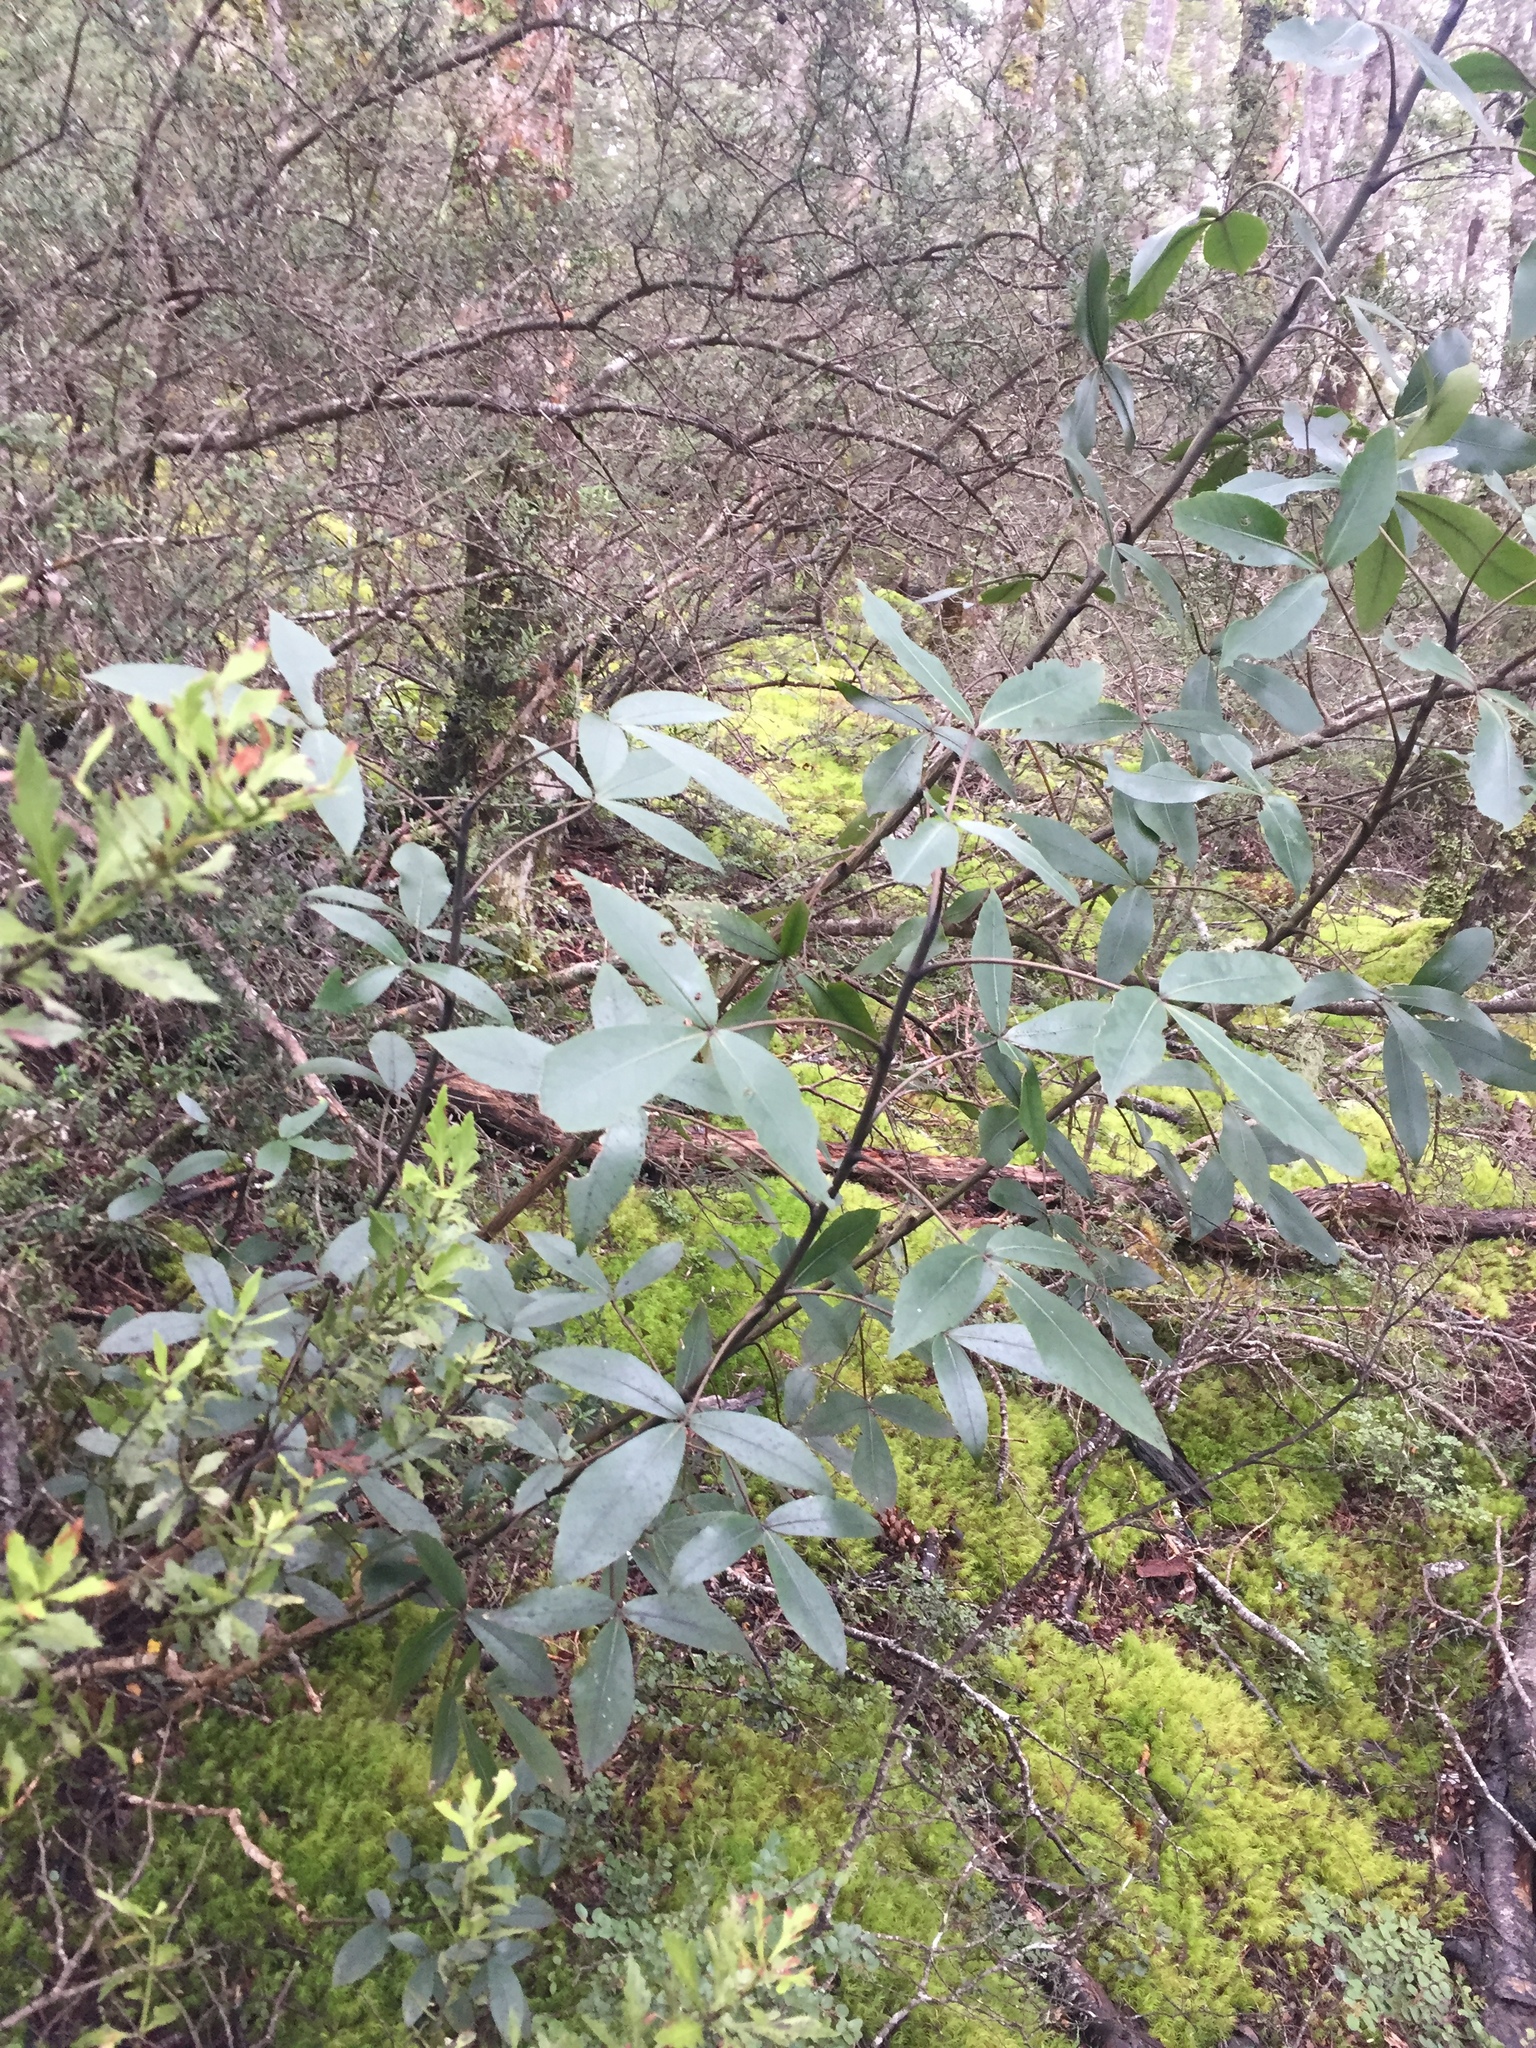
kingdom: Plantae
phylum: Tracheophyta
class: Magnoliopsida
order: Apiales
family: Araliaceae
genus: Neopanax
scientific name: Neopanax colensoi
